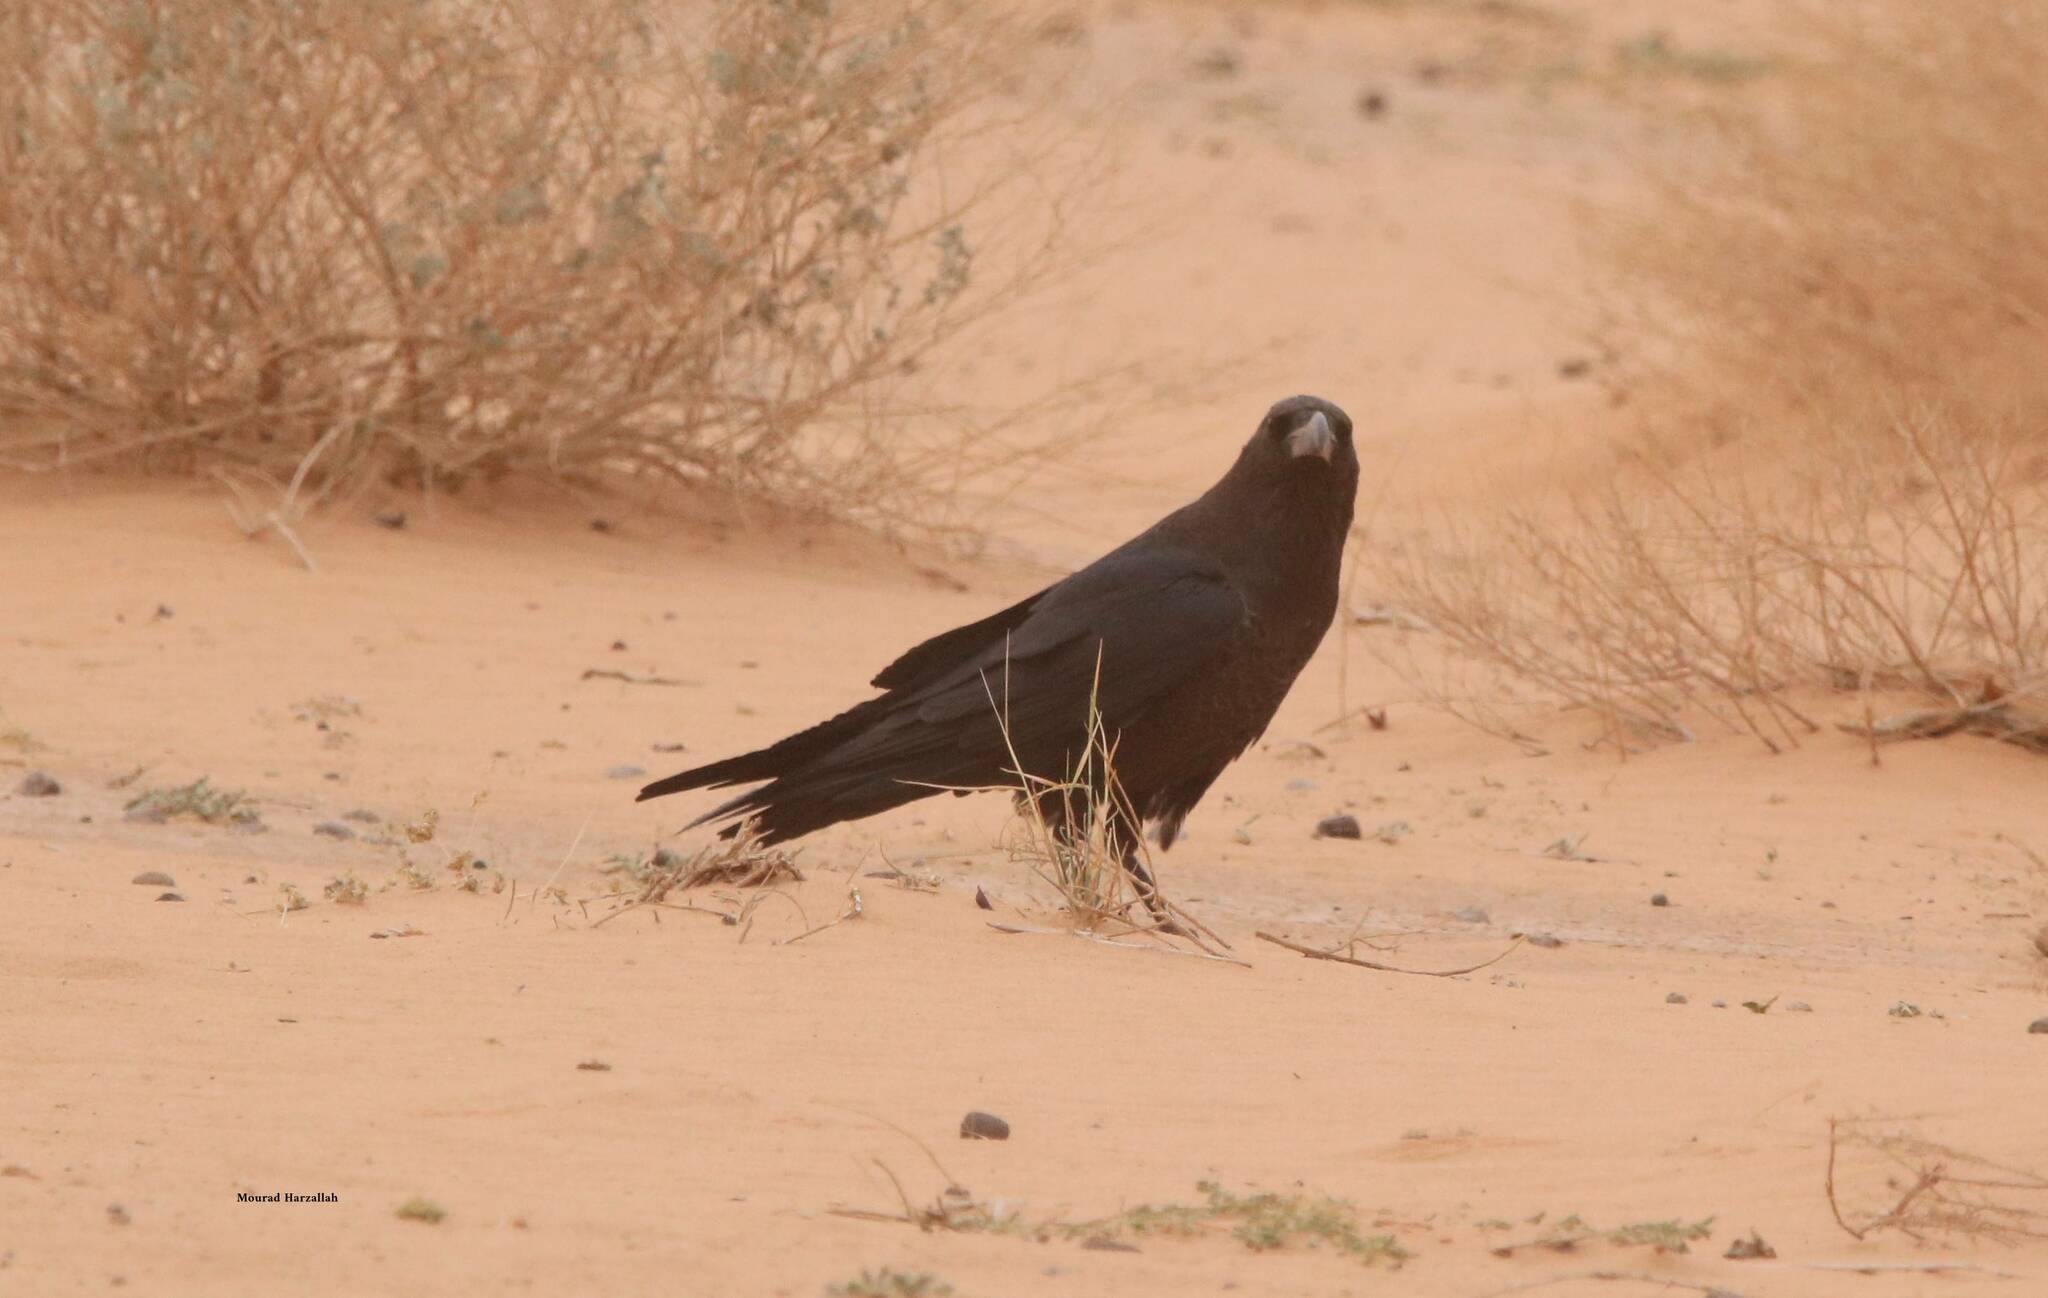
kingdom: Animalia
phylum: Chordata
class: Aves
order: Passeriformes
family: Corvidae
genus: Corvus
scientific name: Corvus ruficollis
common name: Brown-necked raven
